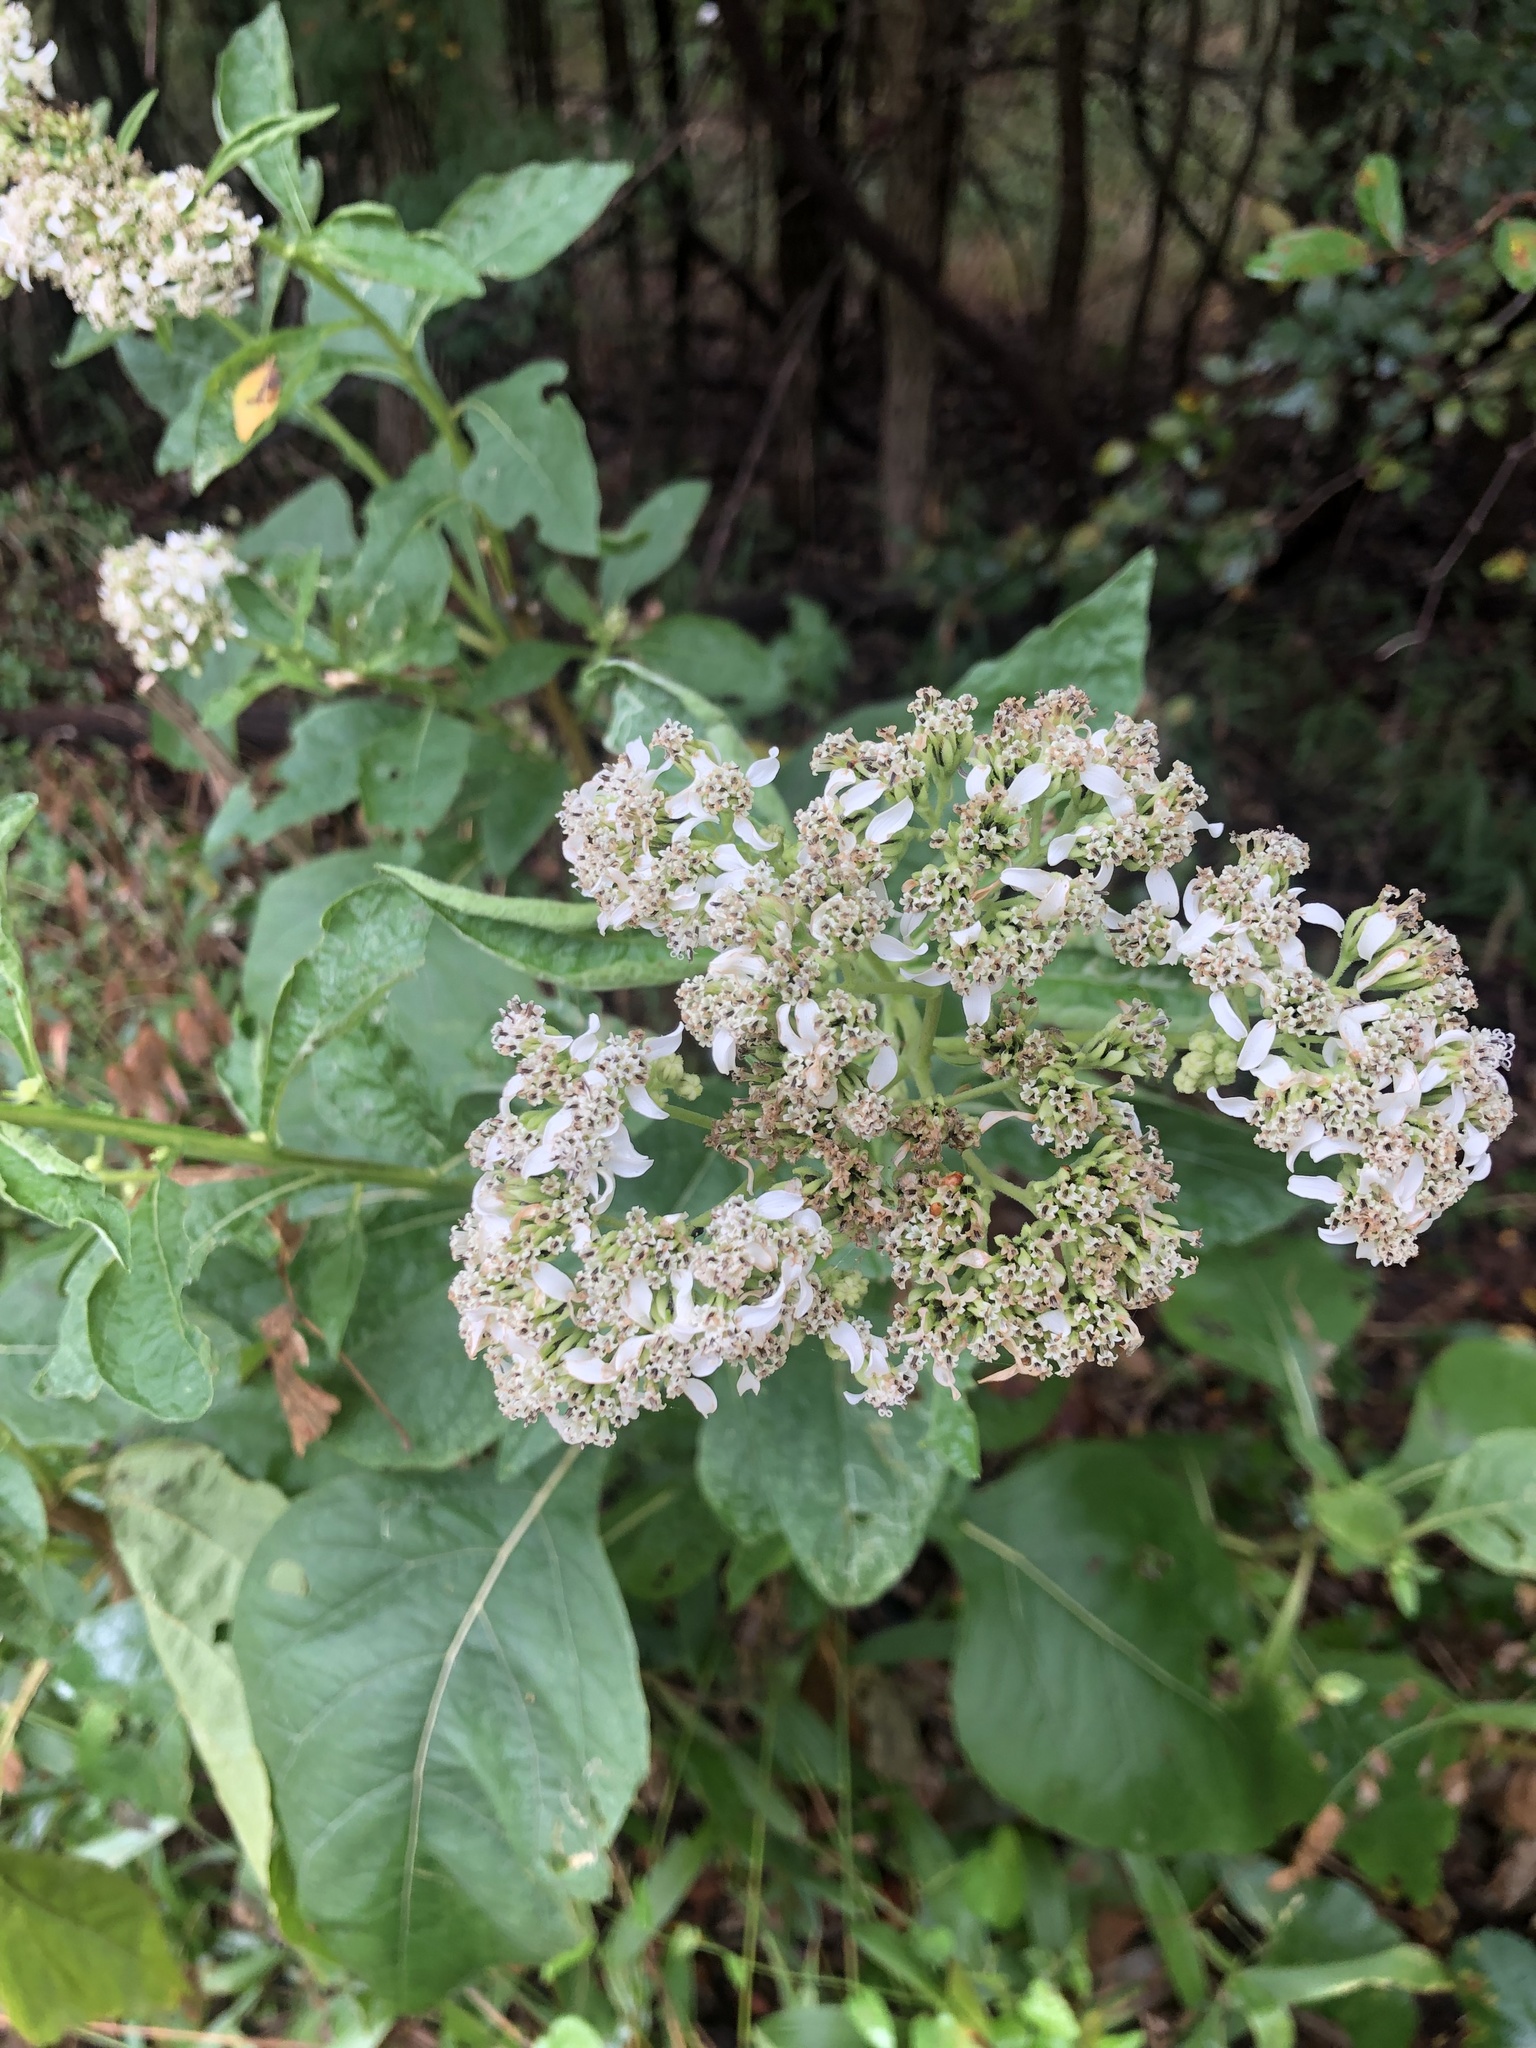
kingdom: Plantae
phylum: Tracheophyta
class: Magnoliopsida
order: Asterales
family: Asteraceae
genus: Verbesina
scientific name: Verbesina virginica
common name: Frostweed
